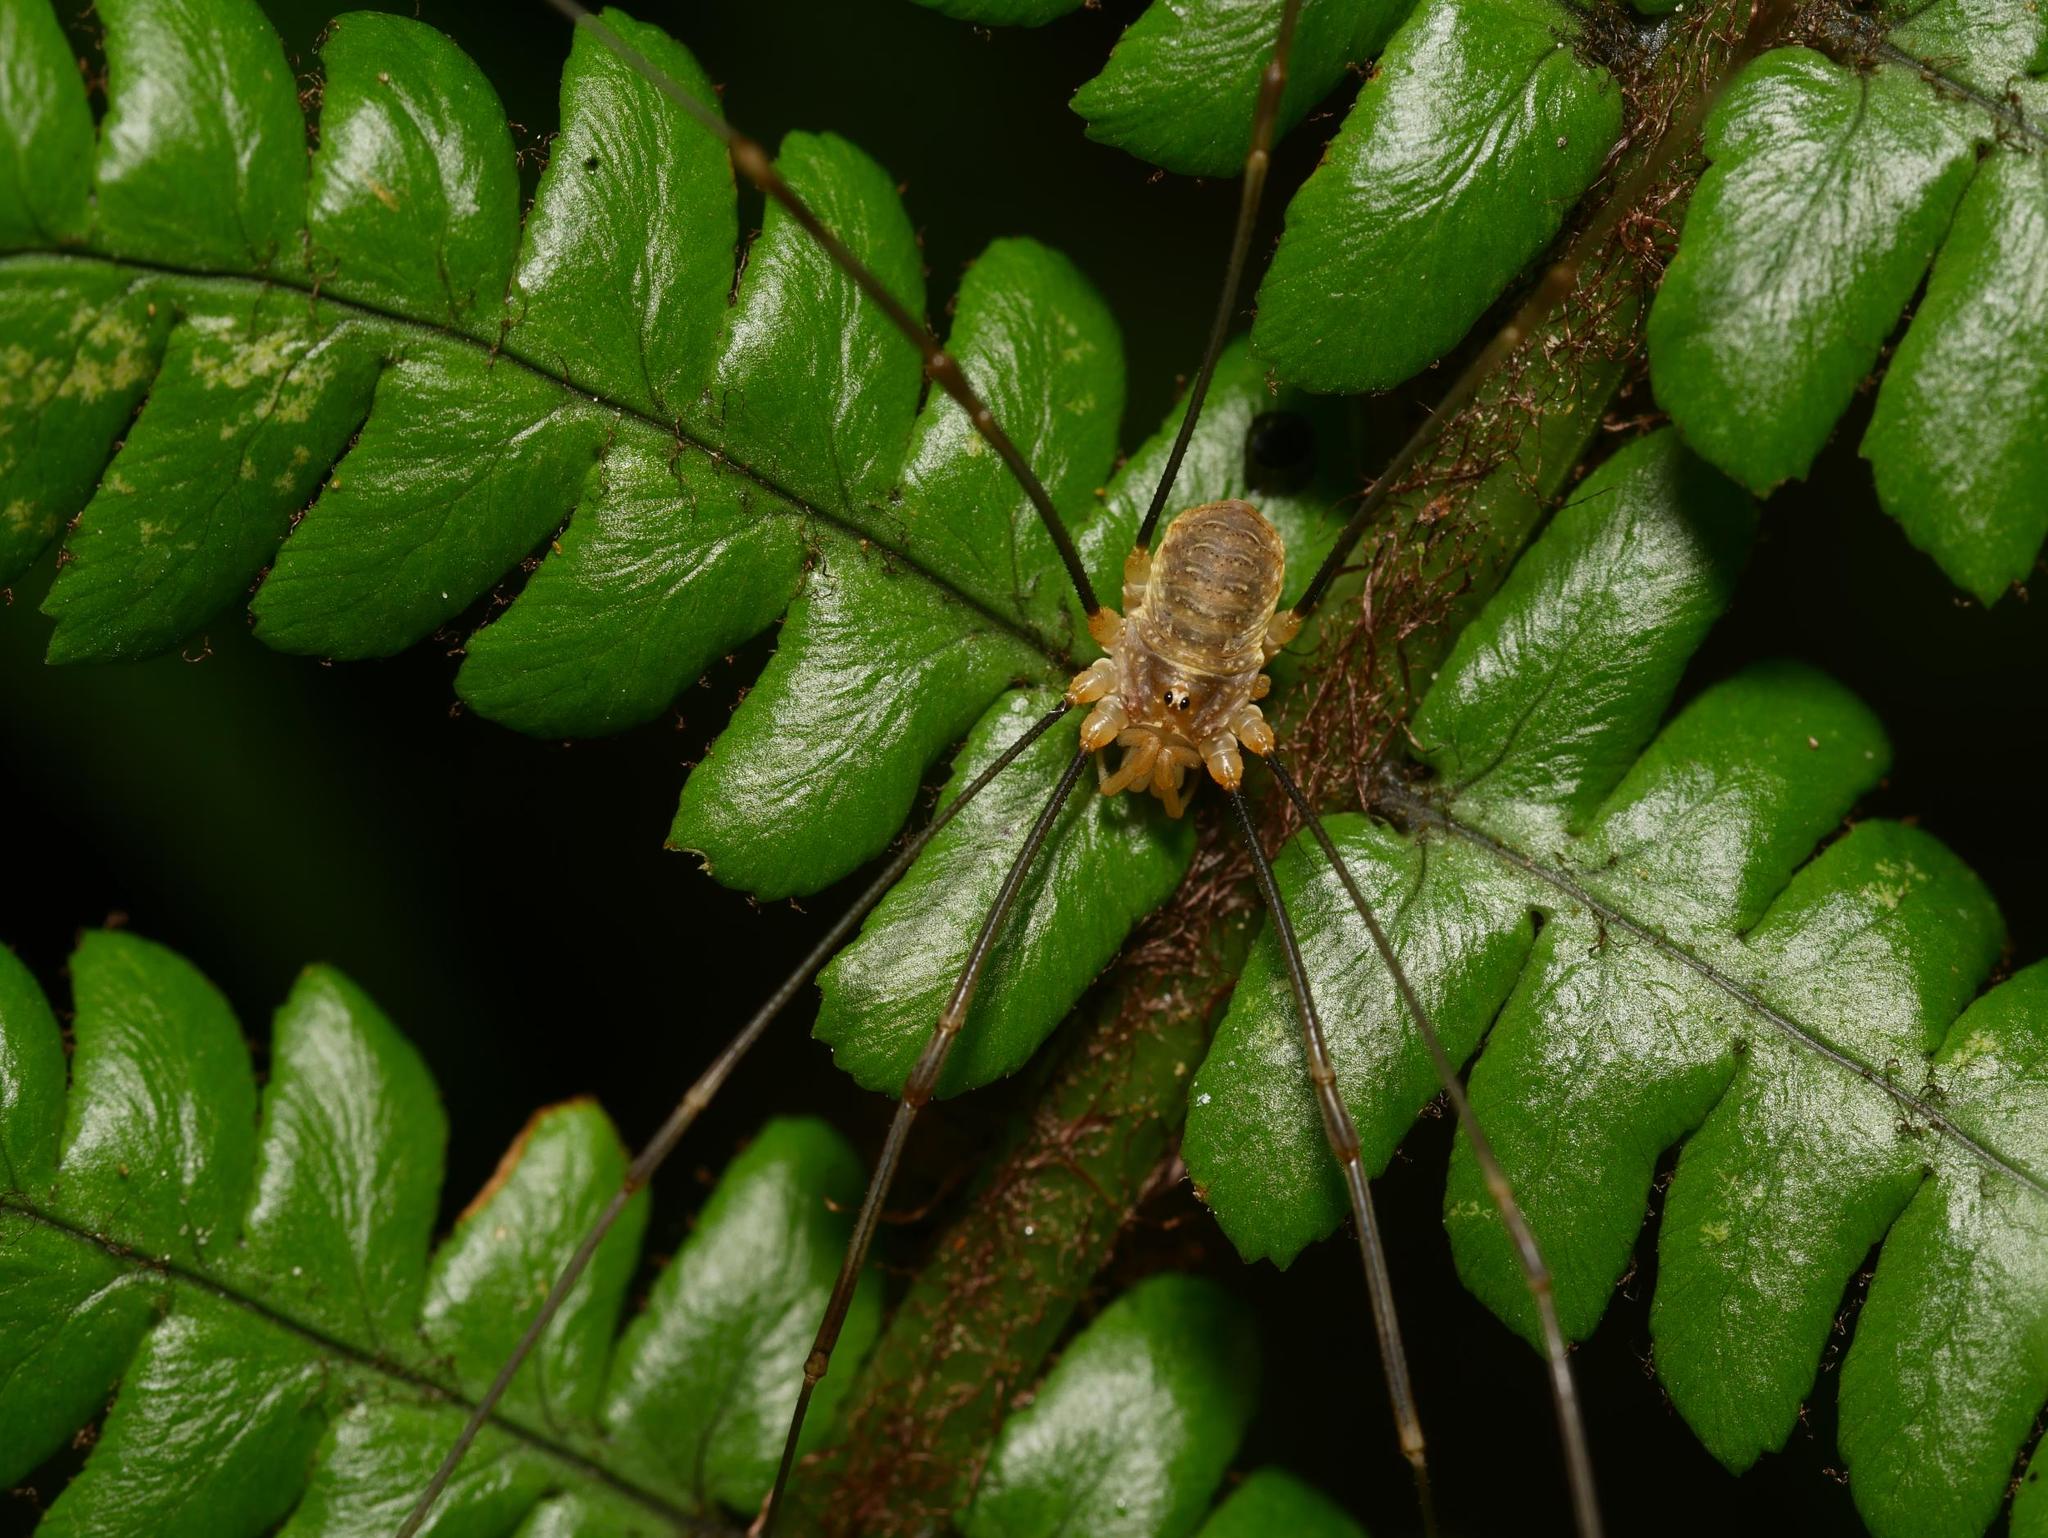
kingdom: Animalia
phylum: Arthropoda
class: Arachnida
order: Opiliones
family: Phalangiidae
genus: Opilio
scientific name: Opilio canestrinii
